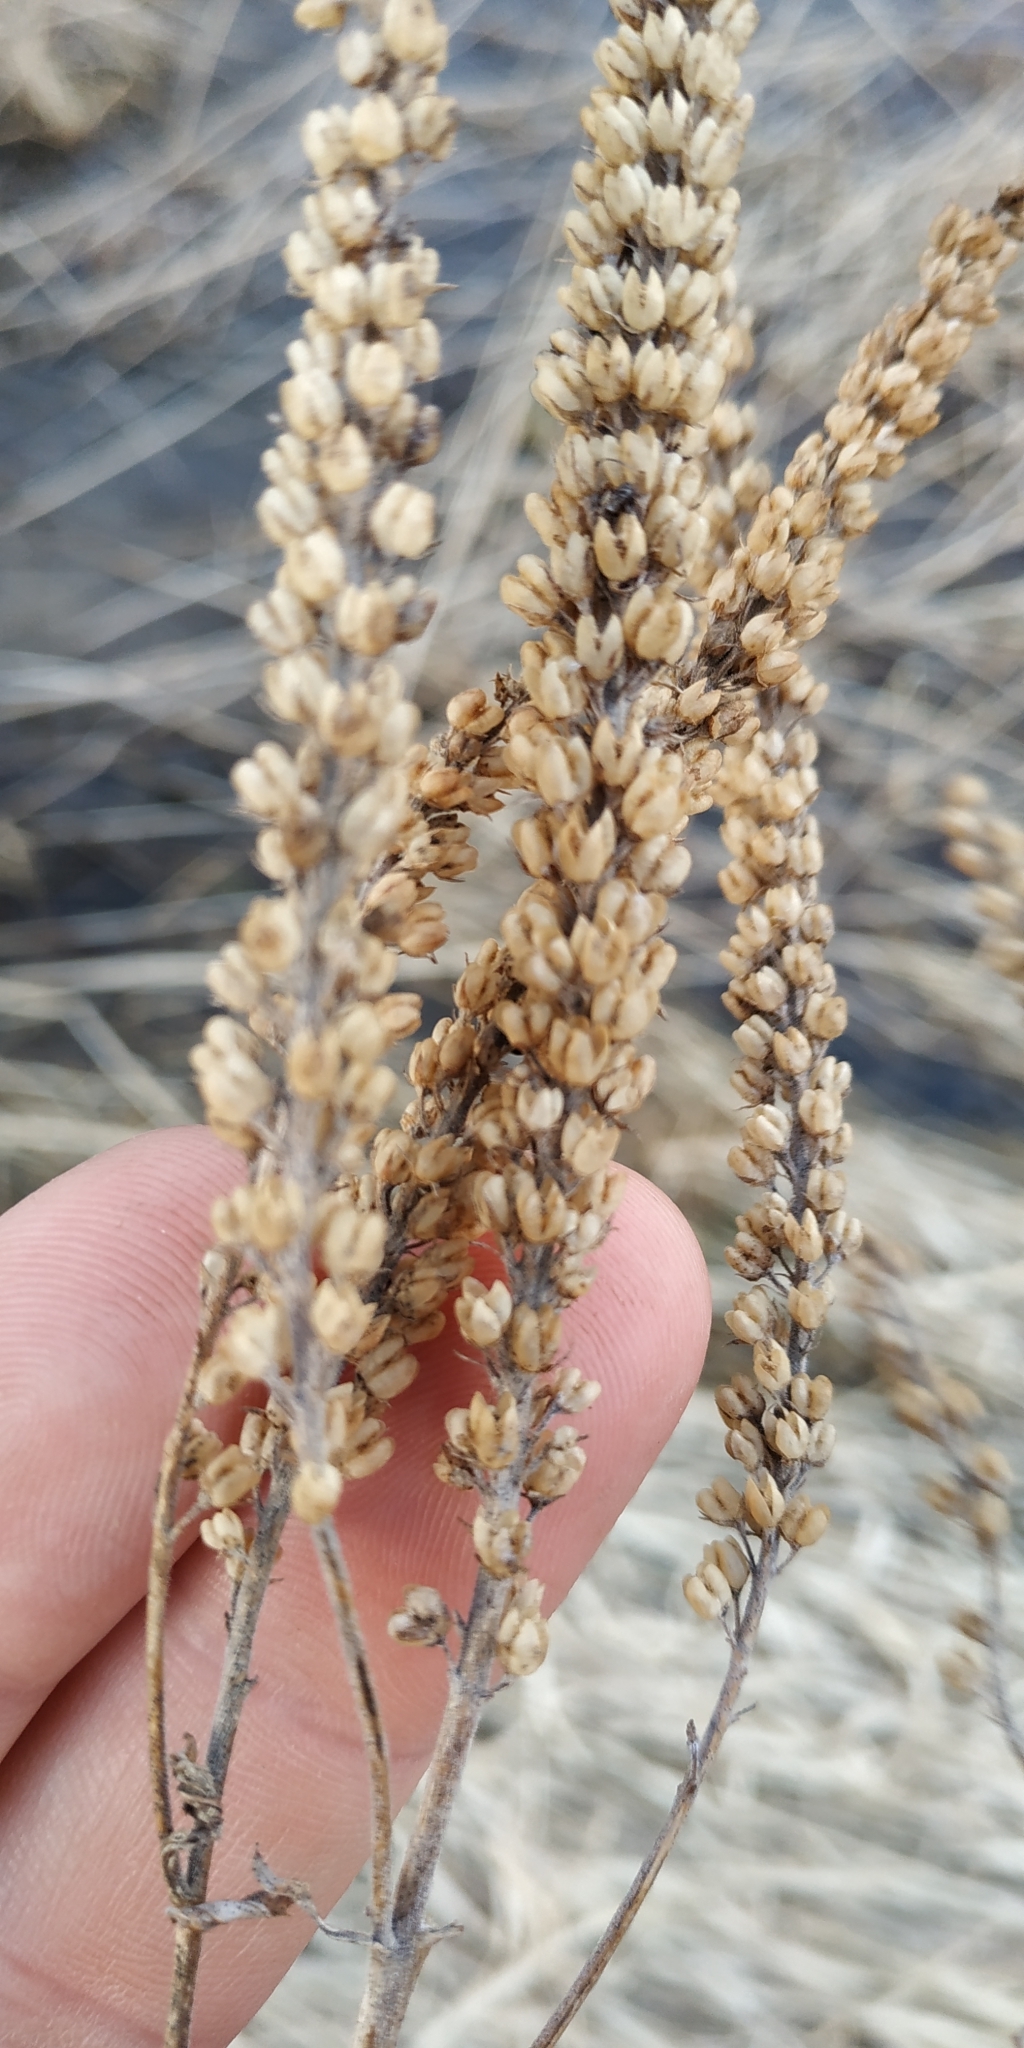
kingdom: Plantae
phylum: Tracheophyta
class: Magnoliopsida
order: Lamiales
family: Plantaginaceae
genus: Veronica
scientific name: Veronica longifolia
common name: Garden speedwell
